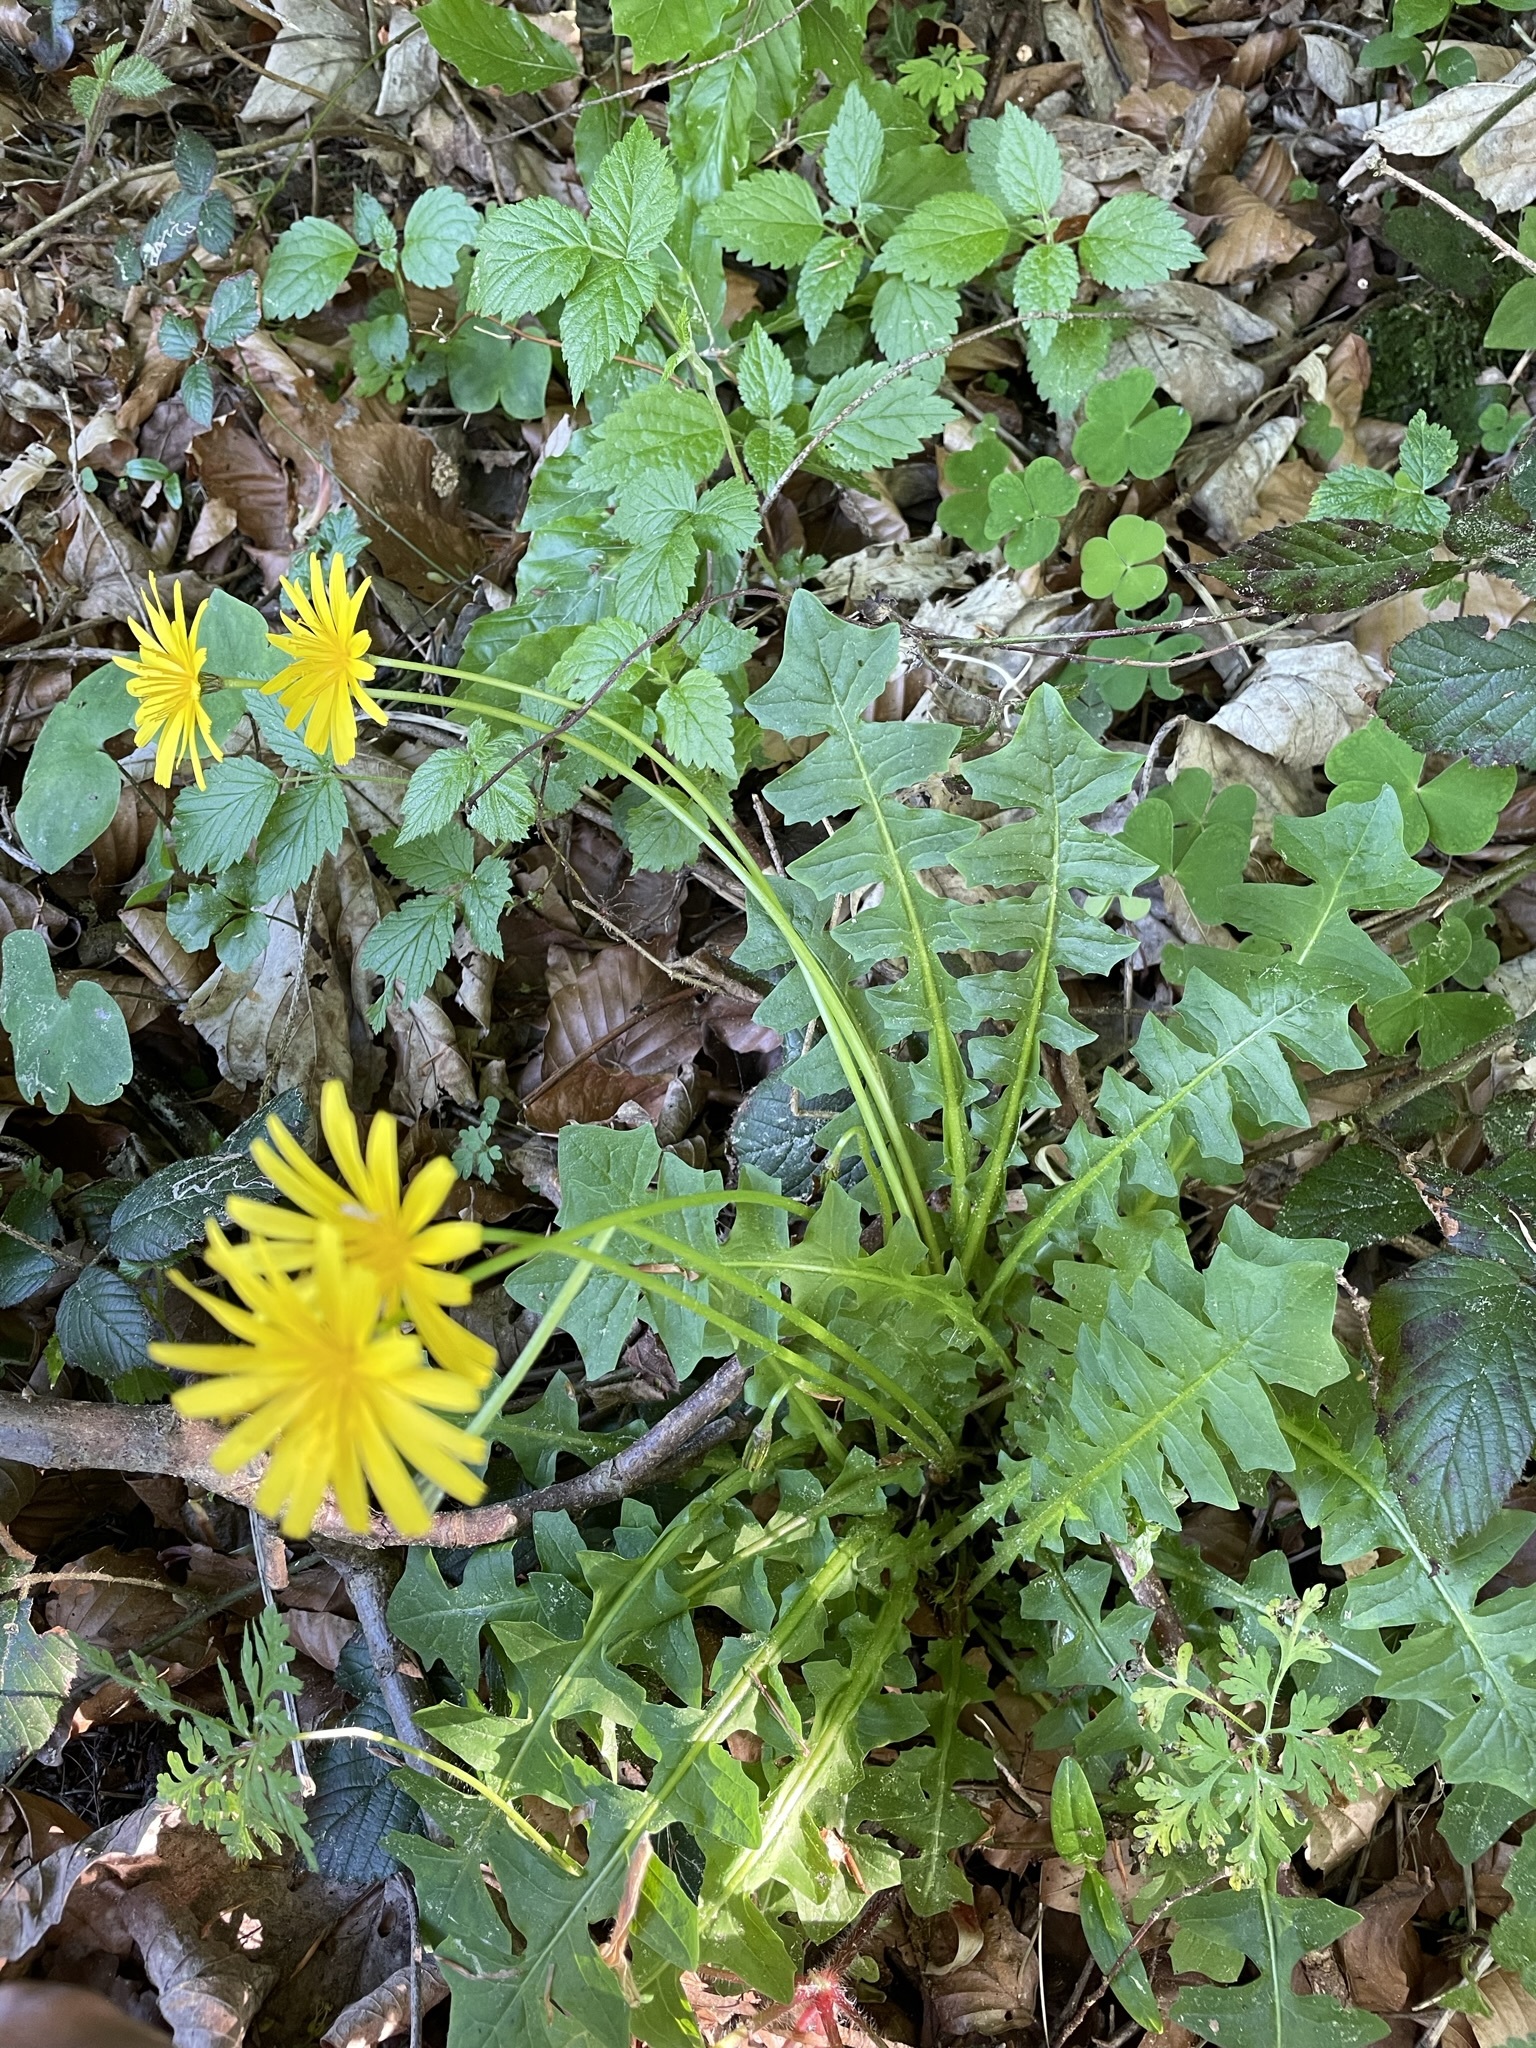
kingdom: Plantae
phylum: Tracheophyta
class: Magnoliopsida
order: Asterales
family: Asteraceae
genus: Aposeris
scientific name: Aposeris foetida
